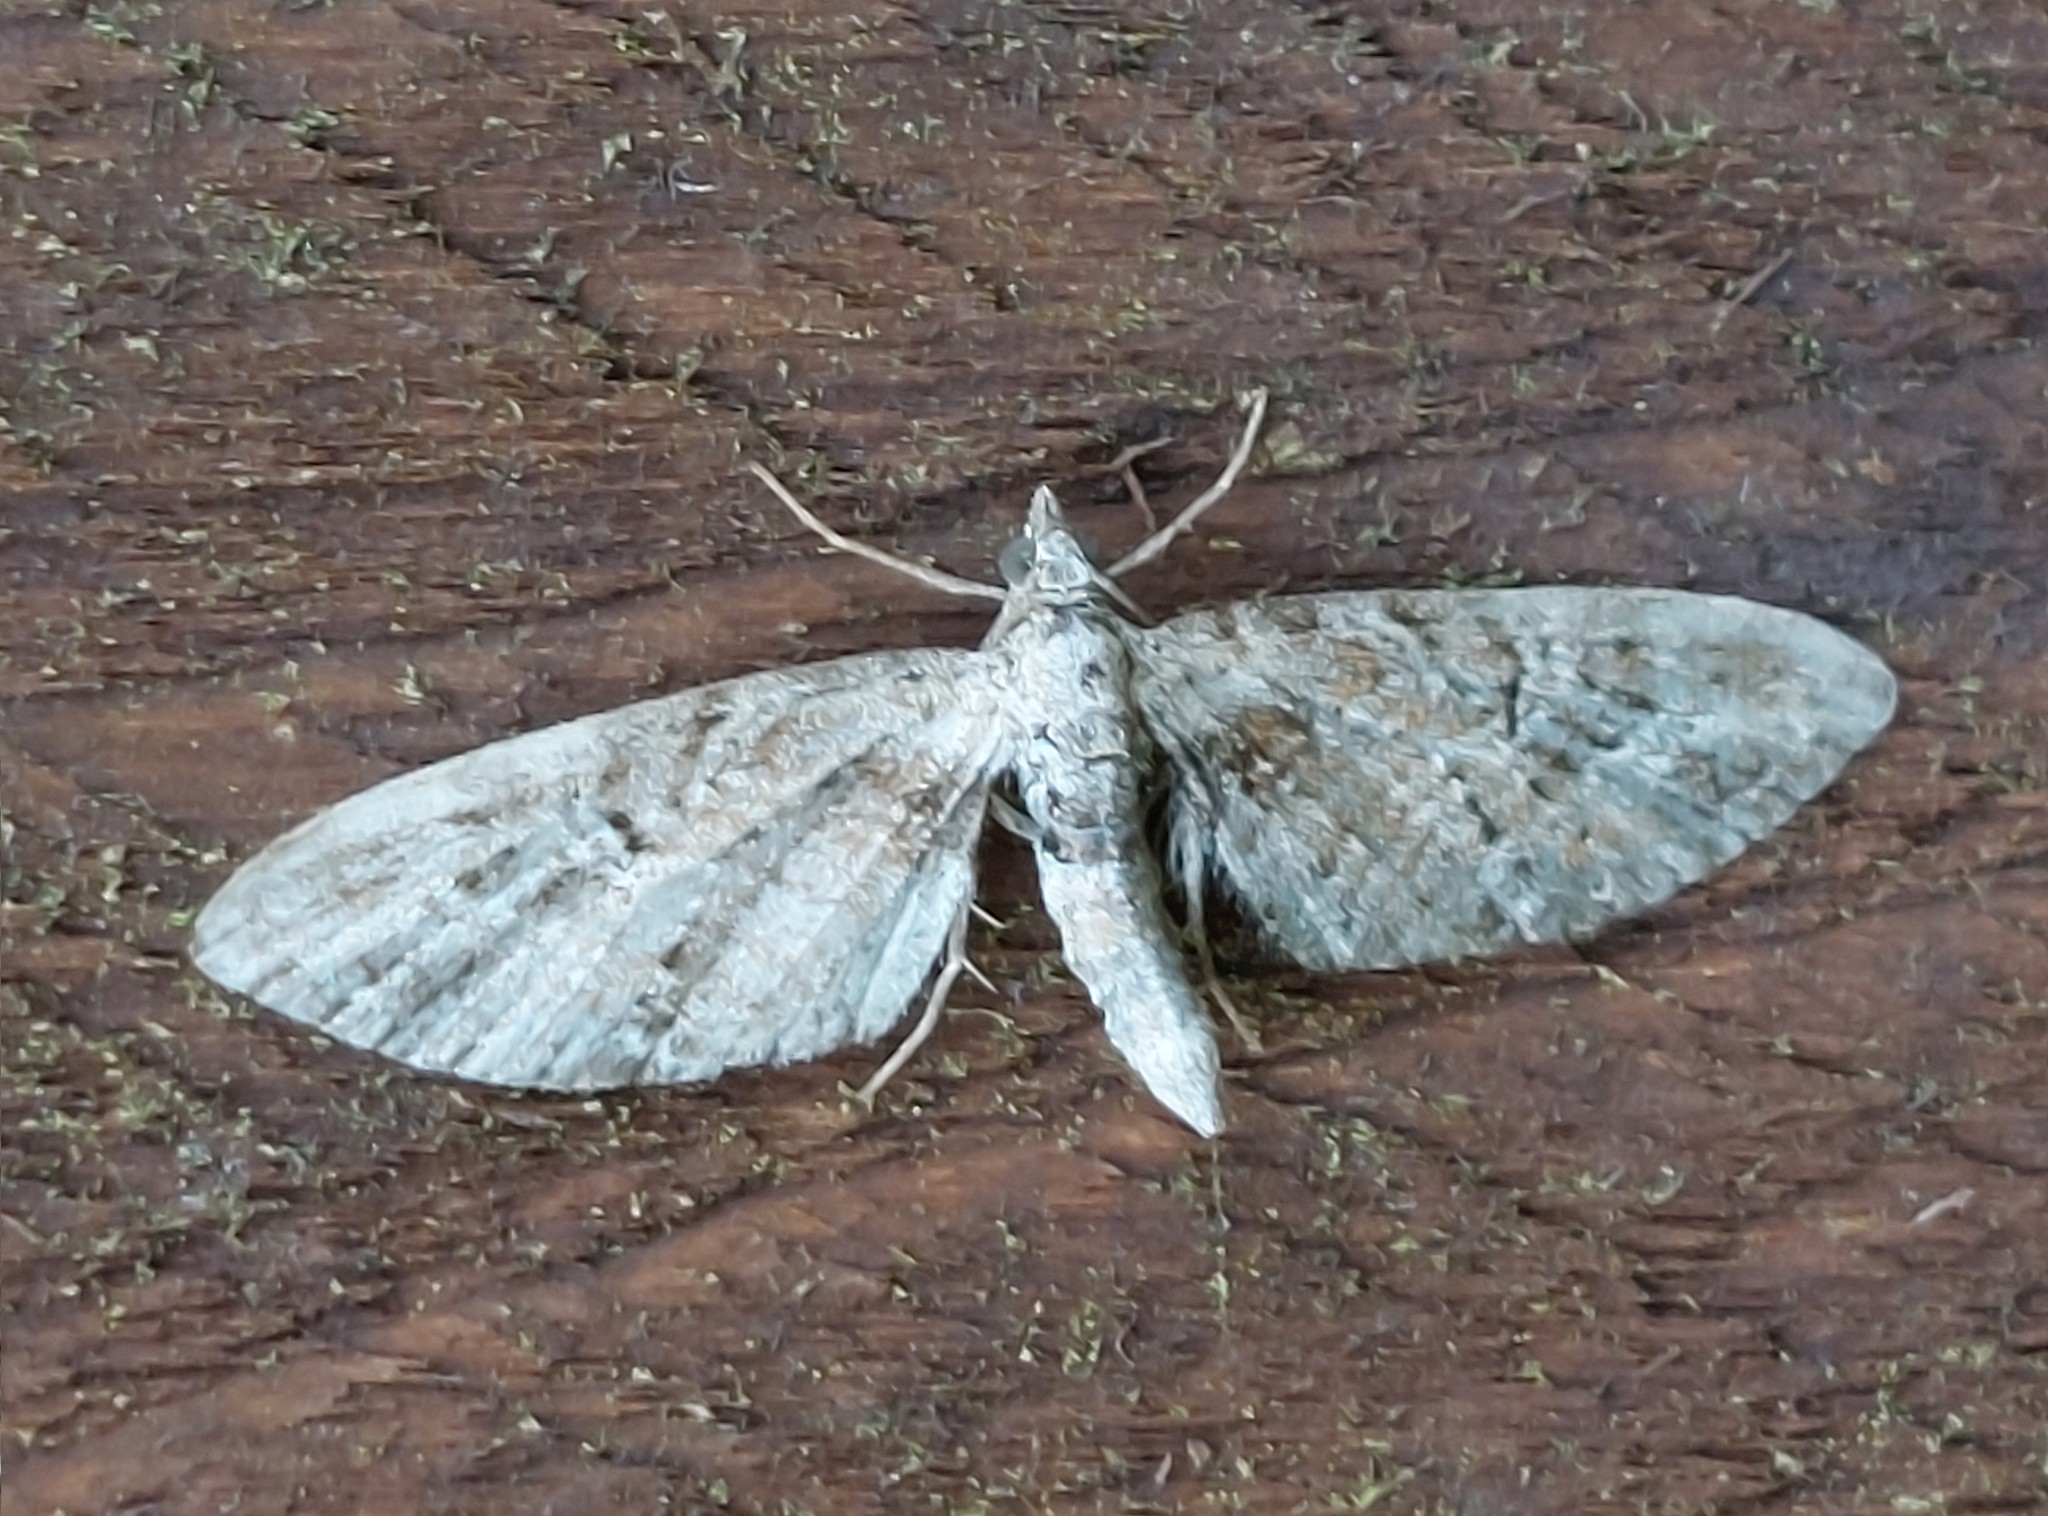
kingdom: Animalia
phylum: Arthropoda
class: Insecta
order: Lepidoptera
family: Geometridae
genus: Eupithecia
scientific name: Eupithecia exiguata
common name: Mottled pug
